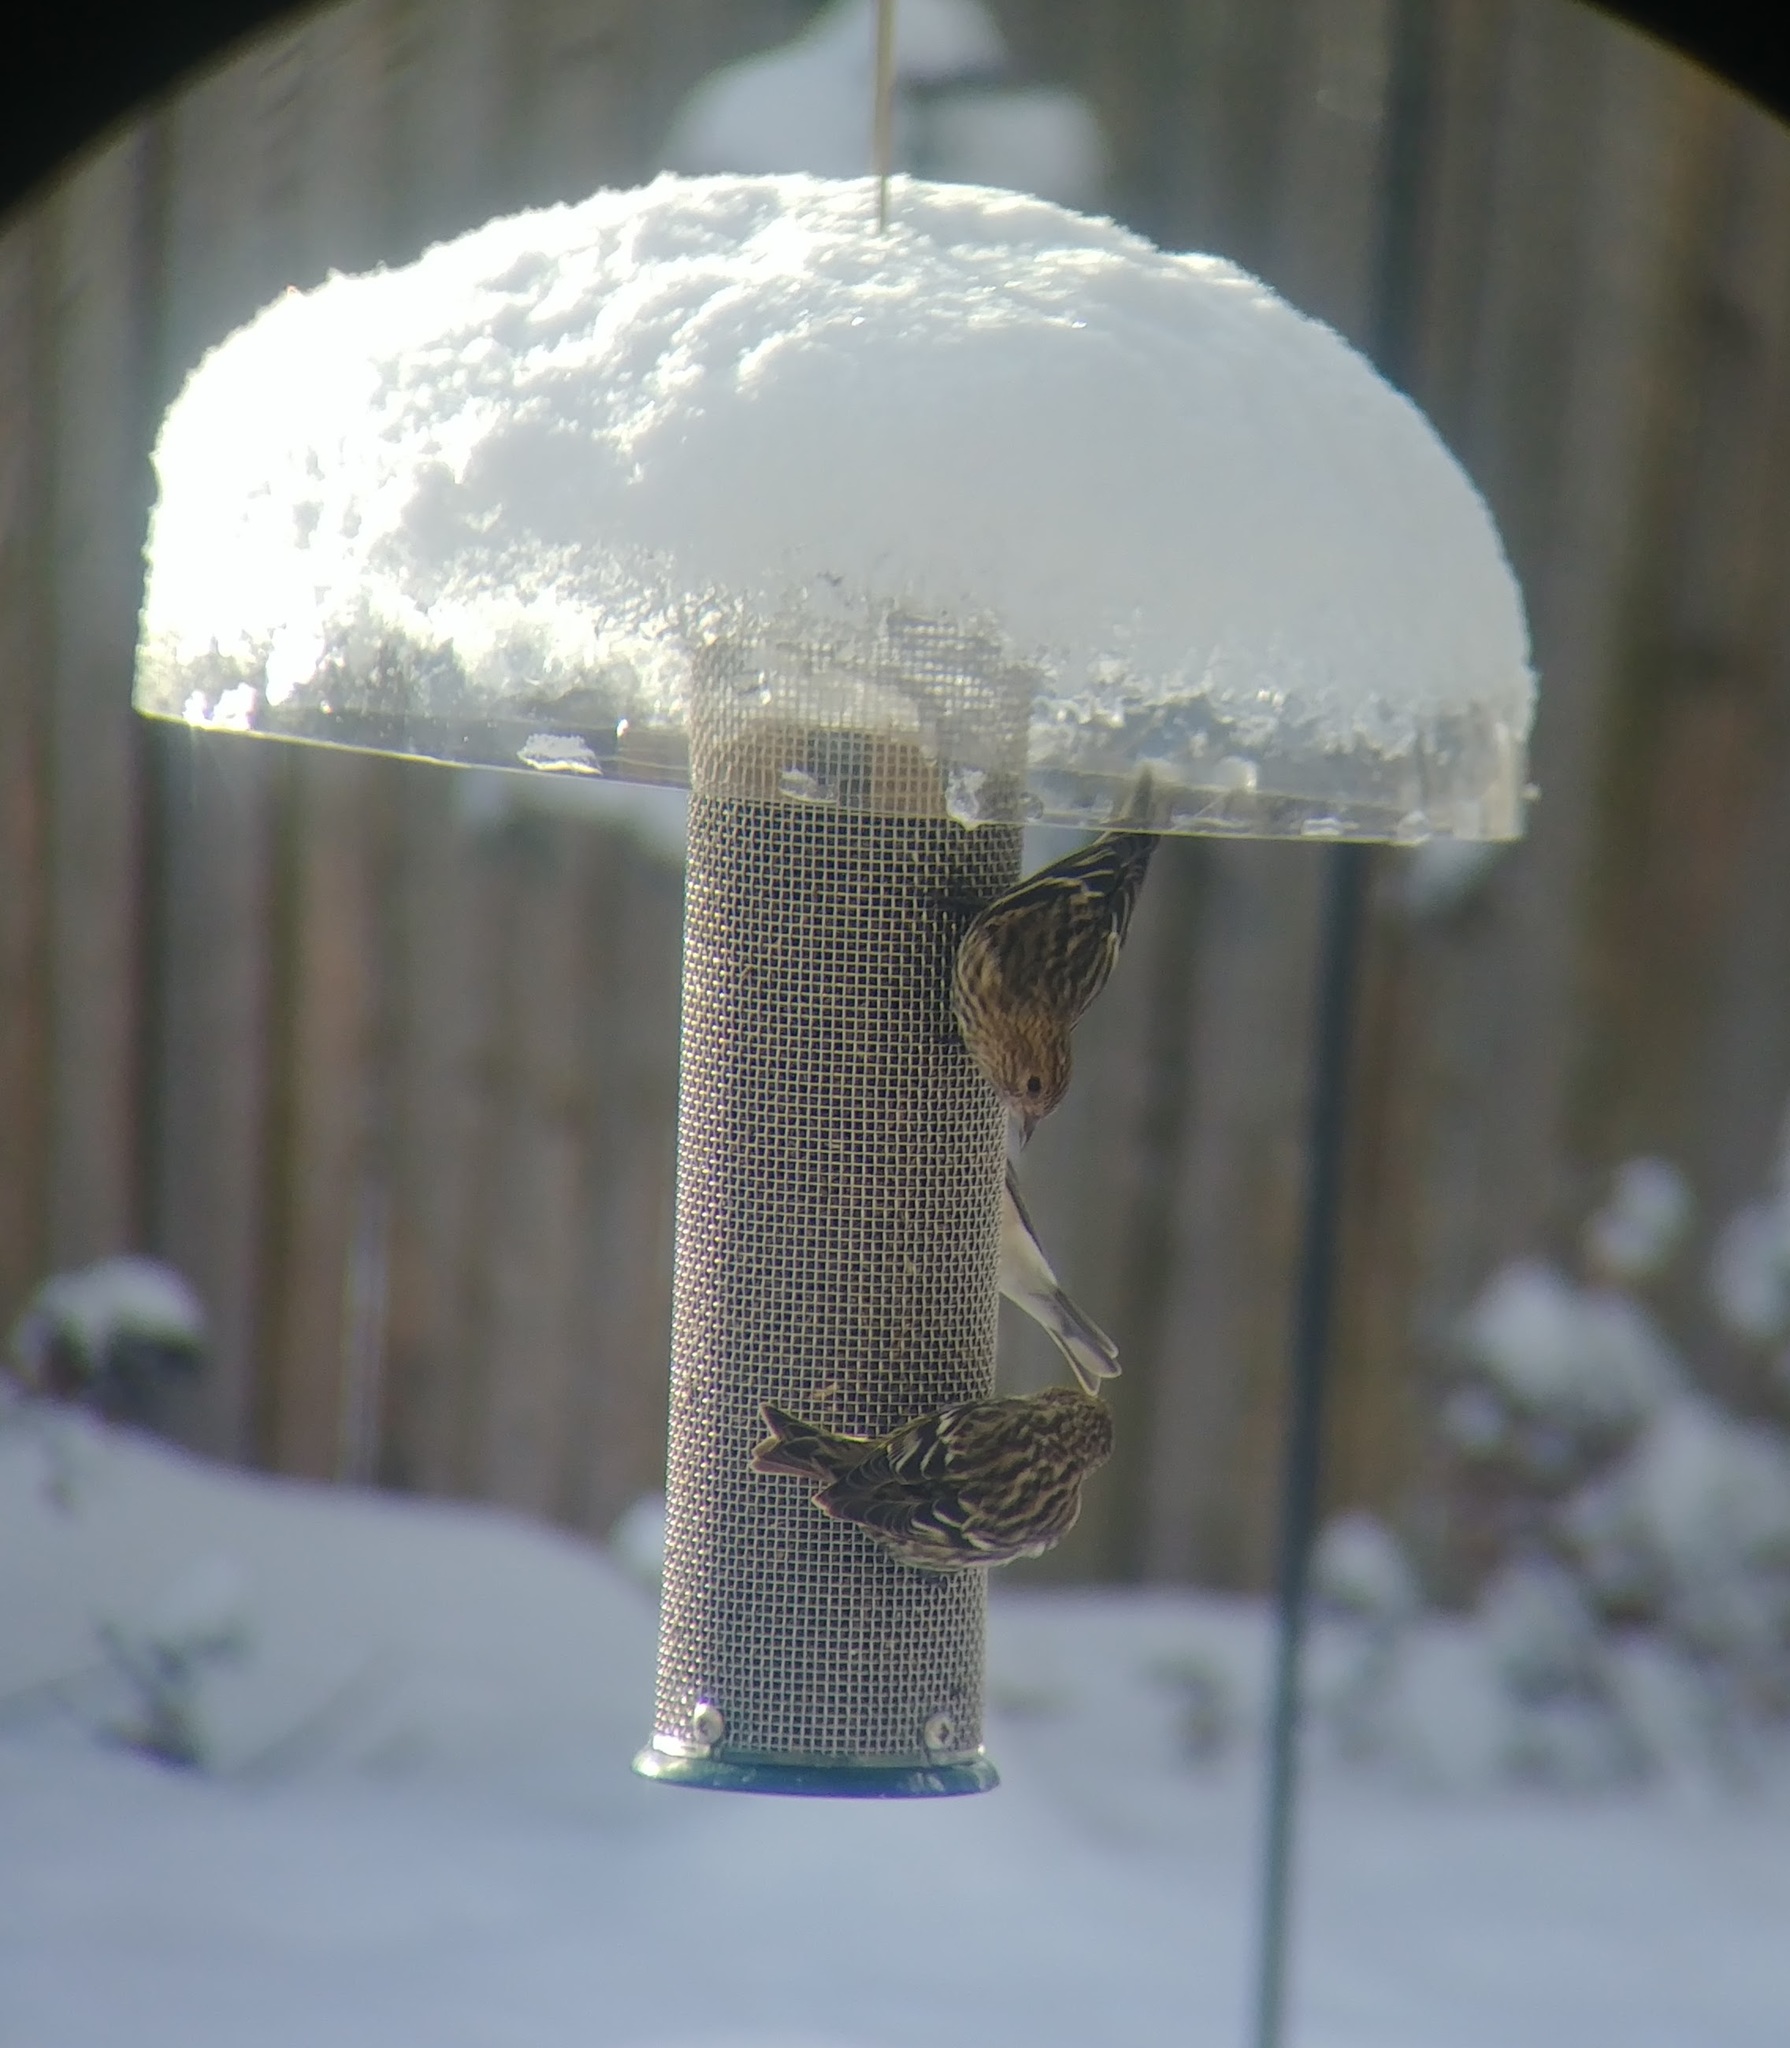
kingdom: Animalia
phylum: Chordata
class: Aves
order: Passeriformes
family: Fringillidae
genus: Spinus
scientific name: Spinus pinus
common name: Pine siskin
